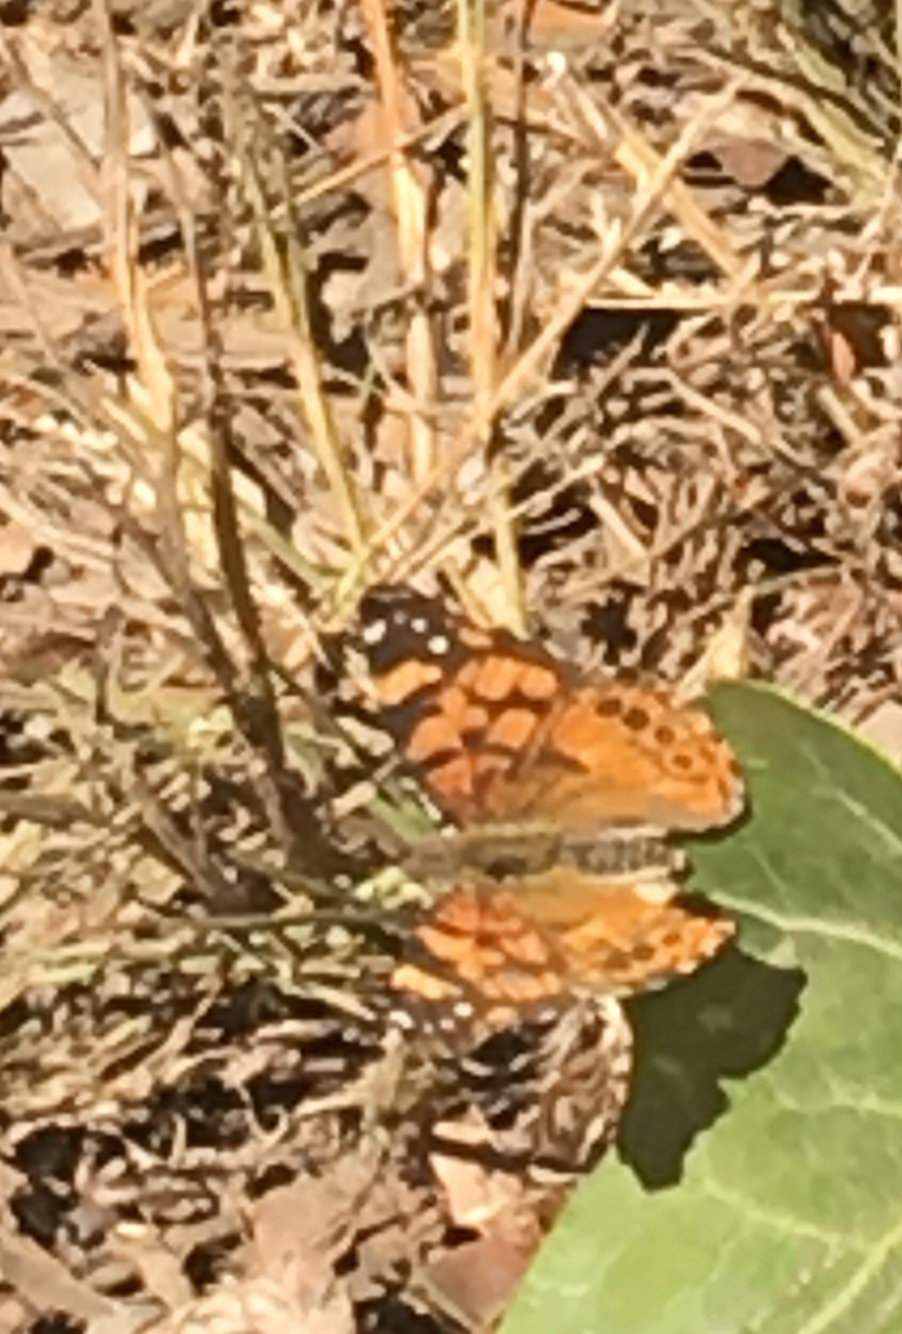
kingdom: Animalia
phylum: Arthropoda
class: Insecta
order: Lepidoptera
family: Nymphalidae
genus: Vanessa
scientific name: Vanessa annabella
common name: West coast lady
